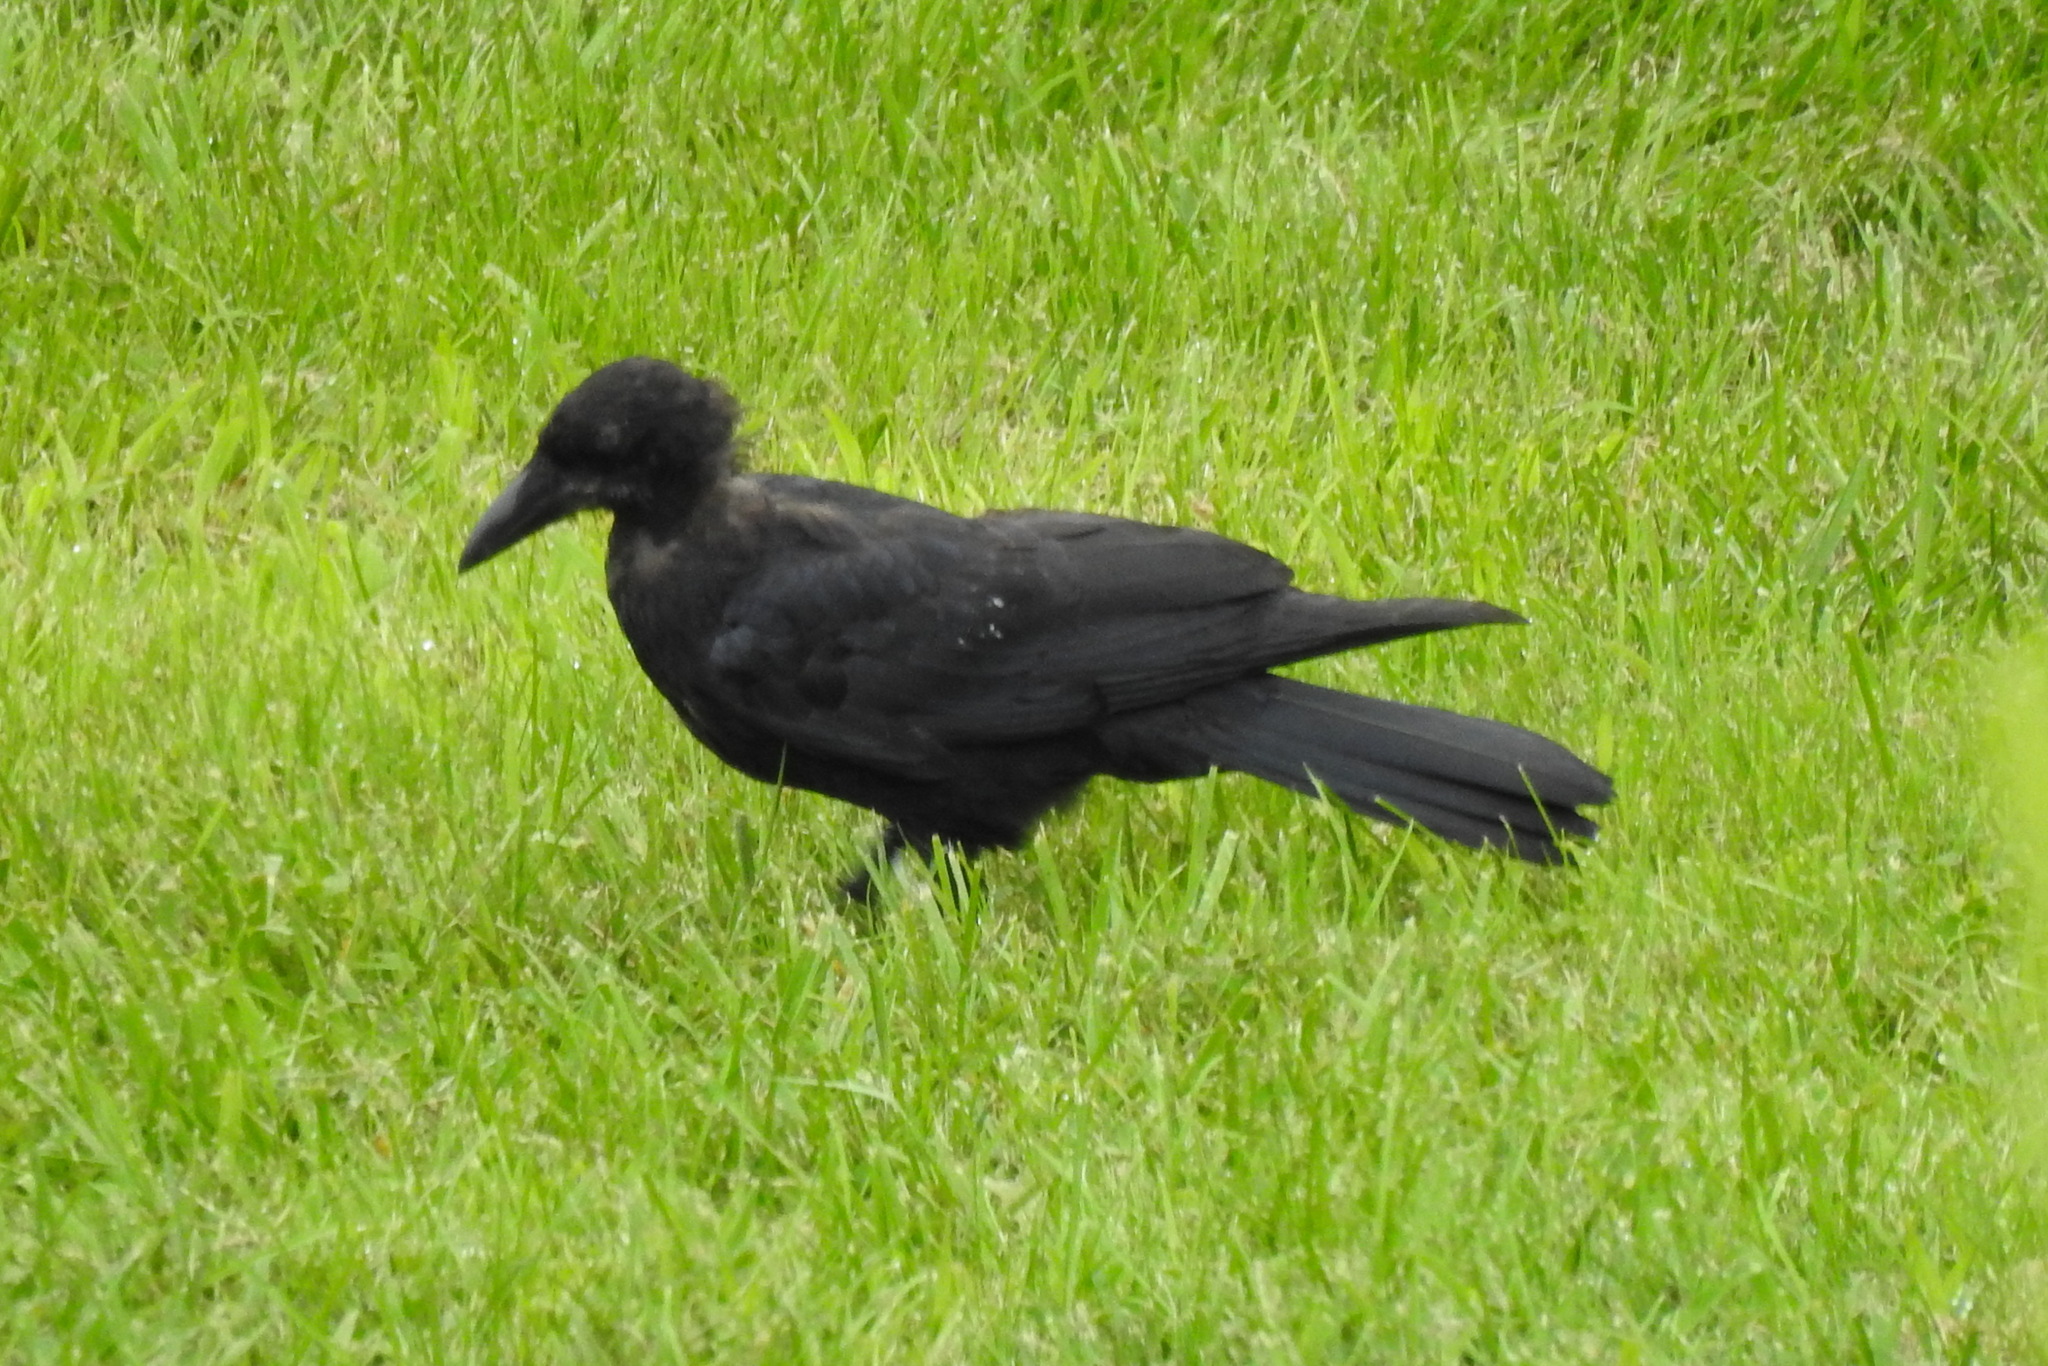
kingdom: Animalia
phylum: Chordata
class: Aves
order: Passeriformes
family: Corvidae
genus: Corvus
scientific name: Corvus brachyrhynchos
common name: American crow
